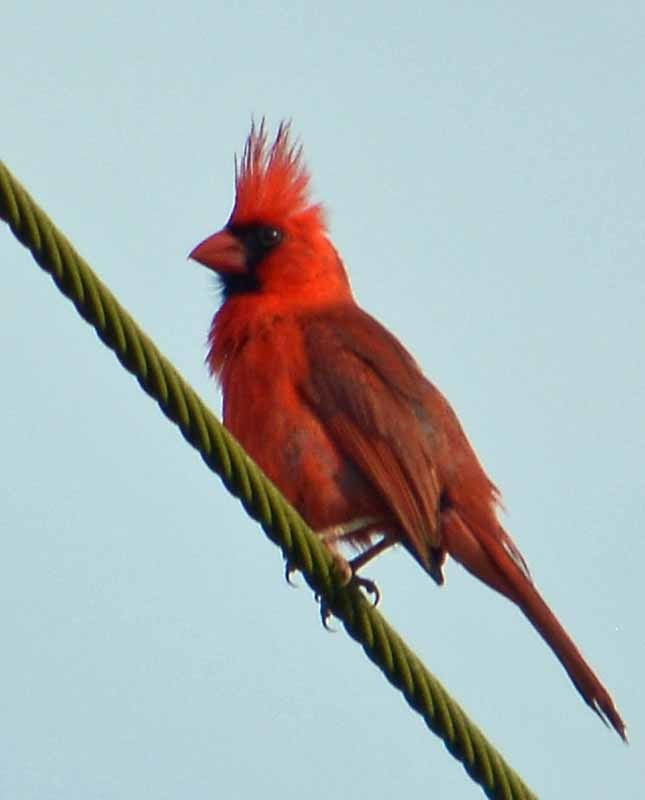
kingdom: Animalia
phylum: Chordata
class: Aves
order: Passeriformes
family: Cardinalidae
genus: Cardinalis
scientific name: Cardinalis cardinalis
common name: Northern cardinal
